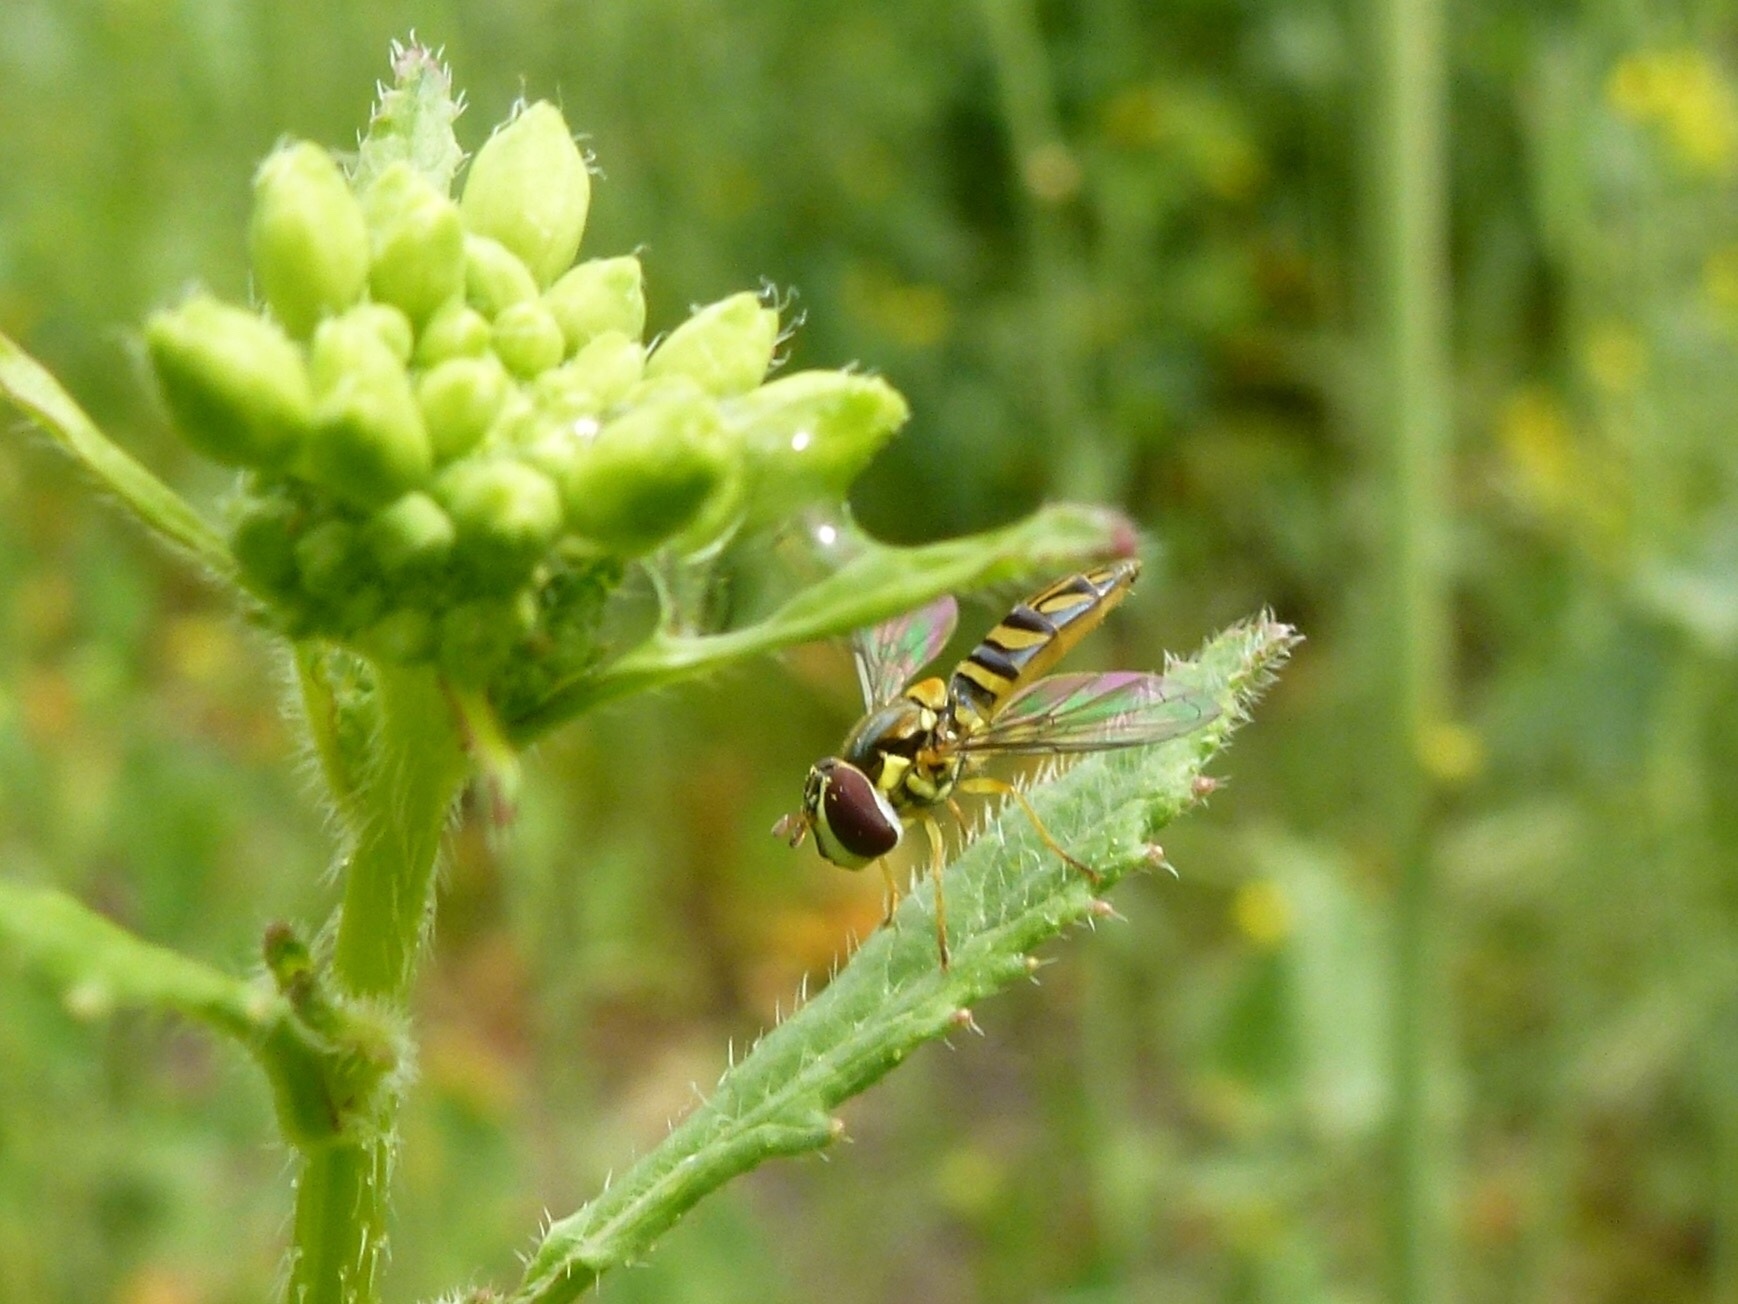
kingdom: Animalia
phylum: Arthropoda
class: Insecta
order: Diptera
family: Syrphidae
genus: Allograpta
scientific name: Allograpta obliqua
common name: Common oblique syrphid
